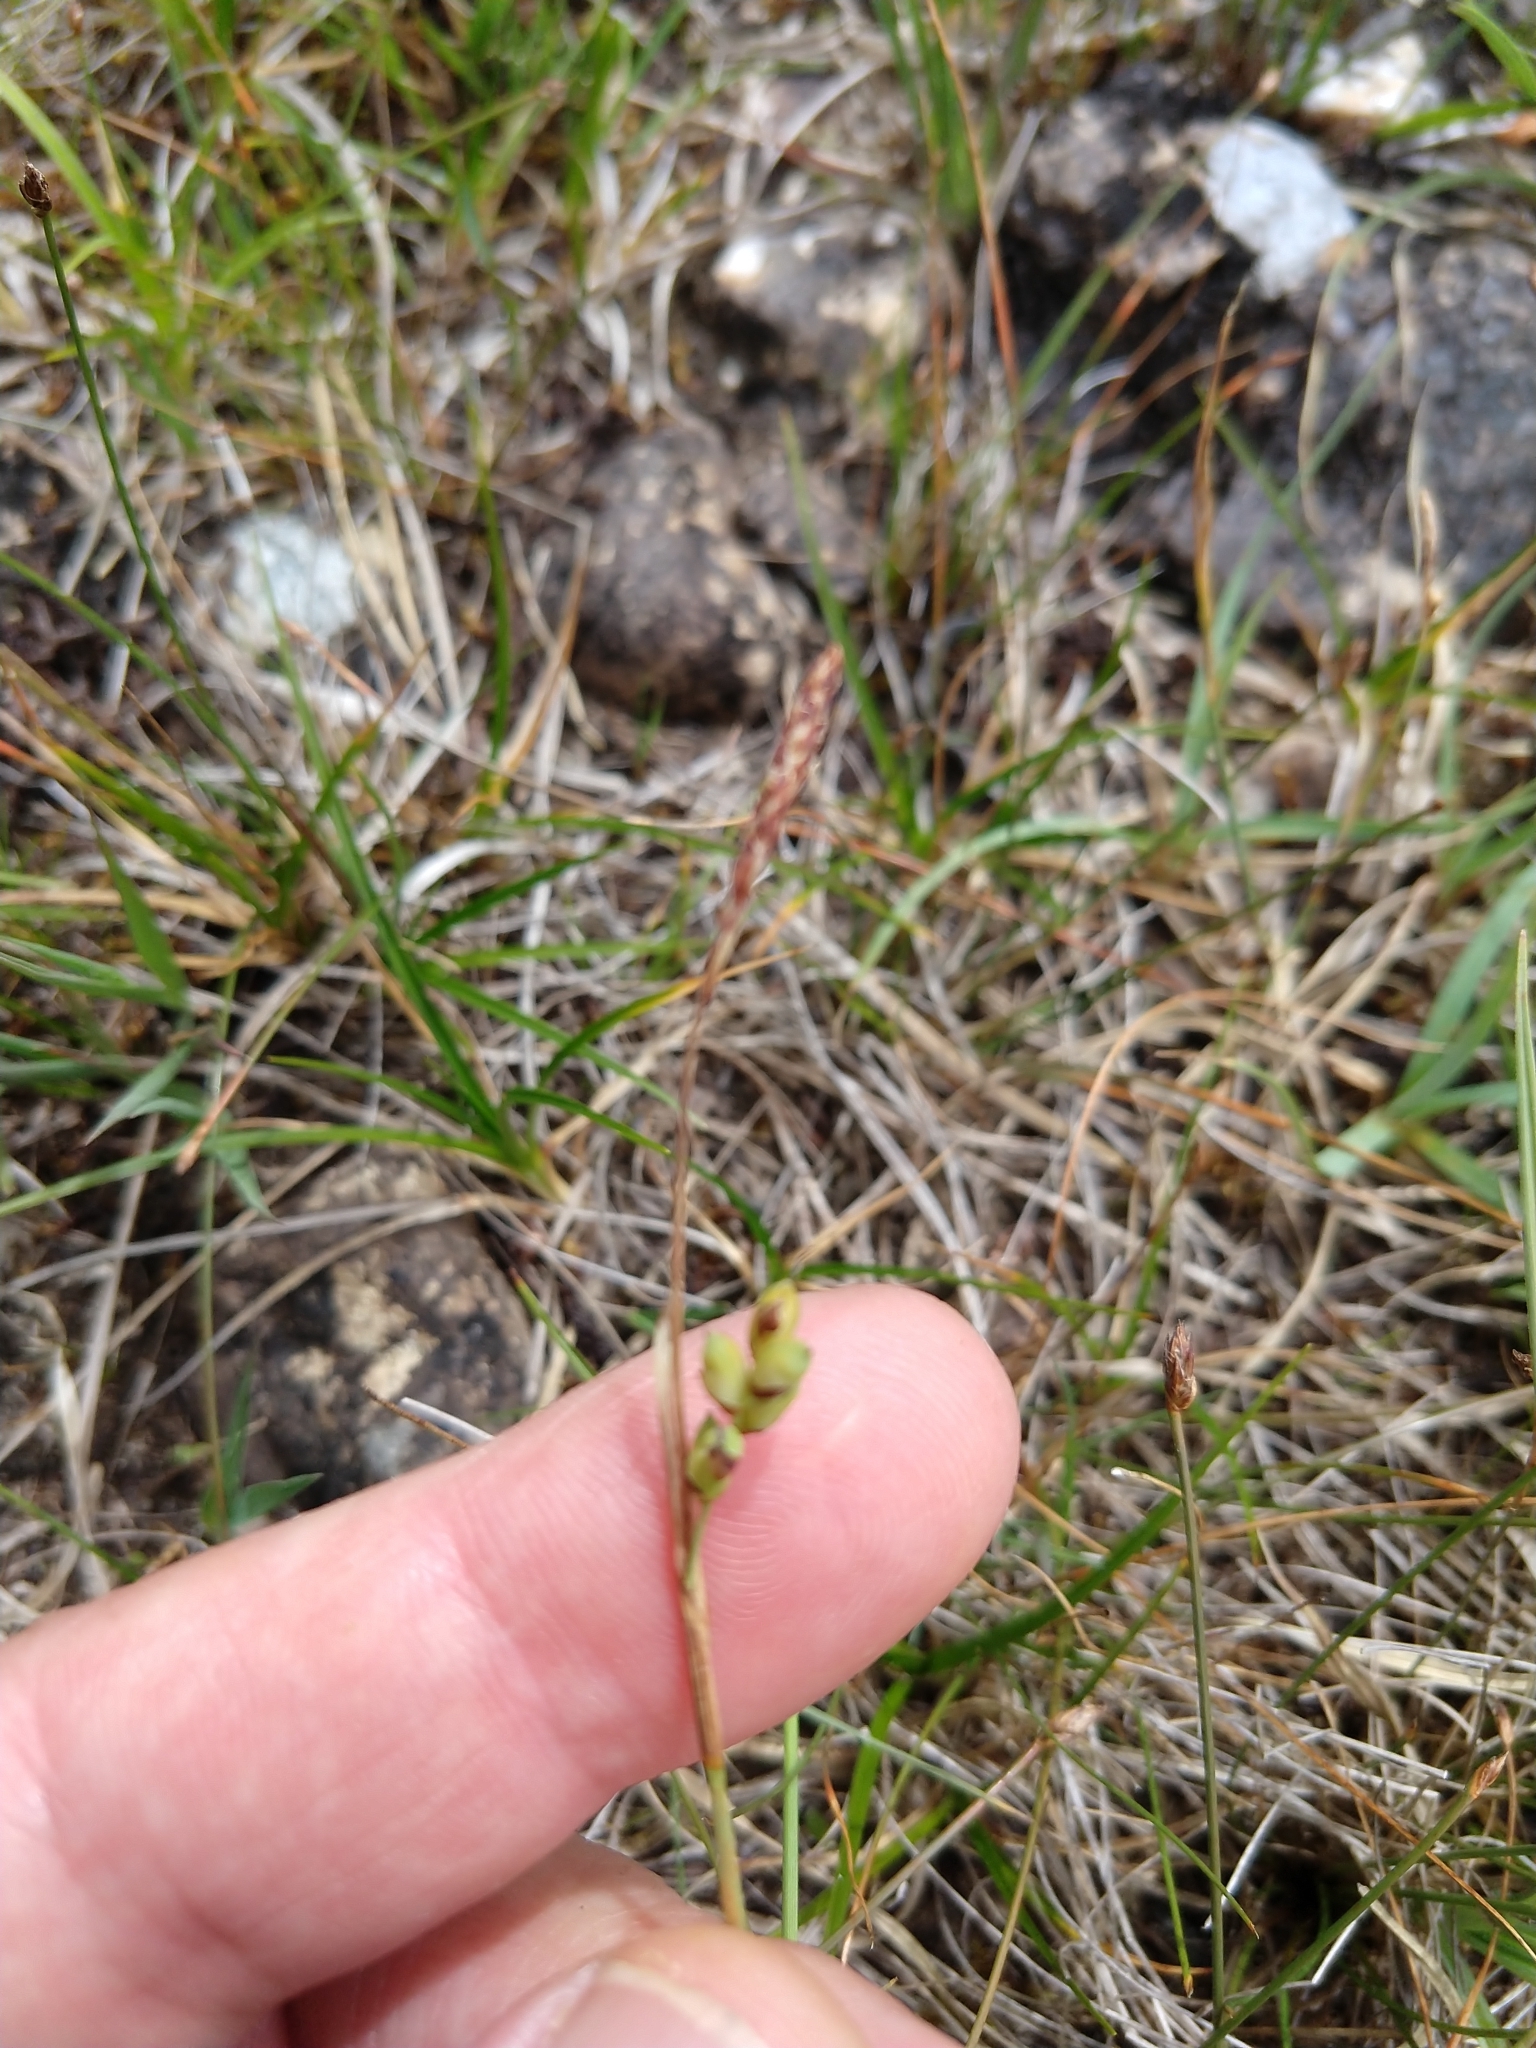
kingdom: Plantae
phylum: Tracheophyta
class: Liliopsida
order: Poales
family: Cyperaceae
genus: Carex
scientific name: Carex panicea
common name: Carnation sedge
